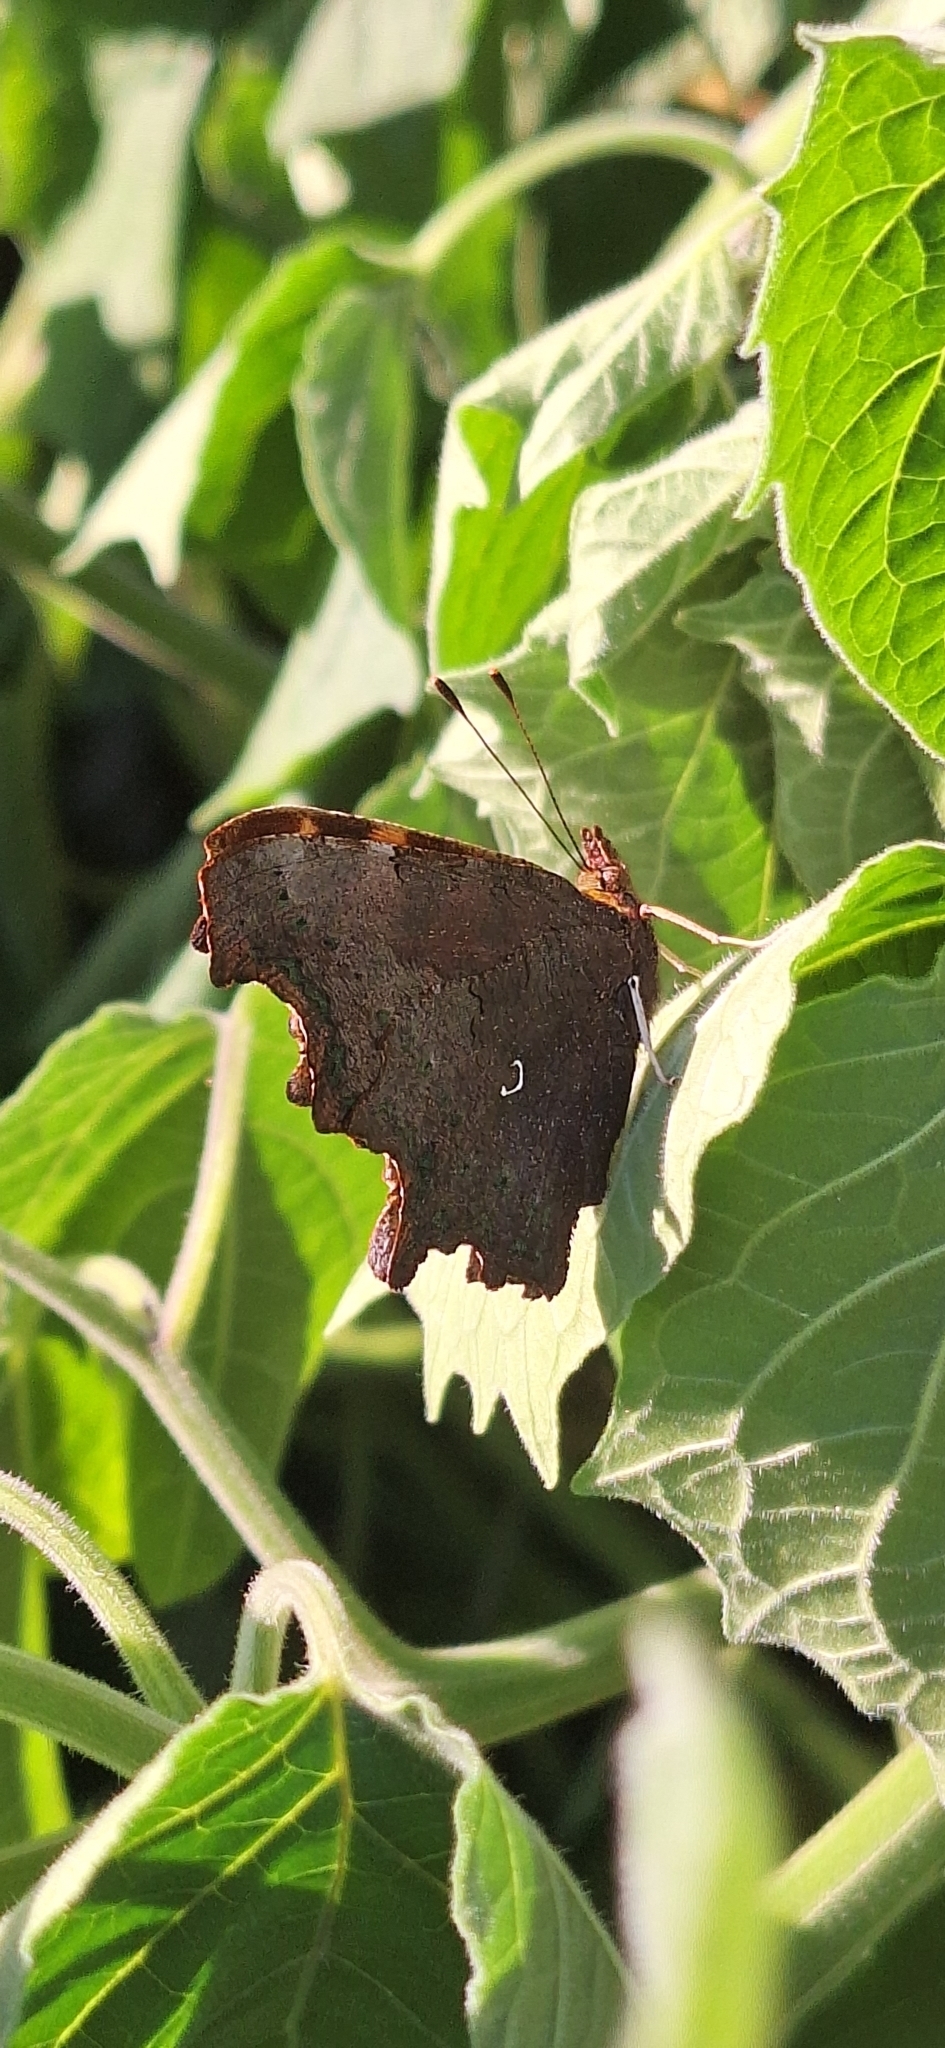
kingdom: Animalia
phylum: Arthropoda
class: Insecta
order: Lepidoptera
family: Nymphalidae
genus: Polygonia
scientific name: Polygonia c-album
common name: Comma
